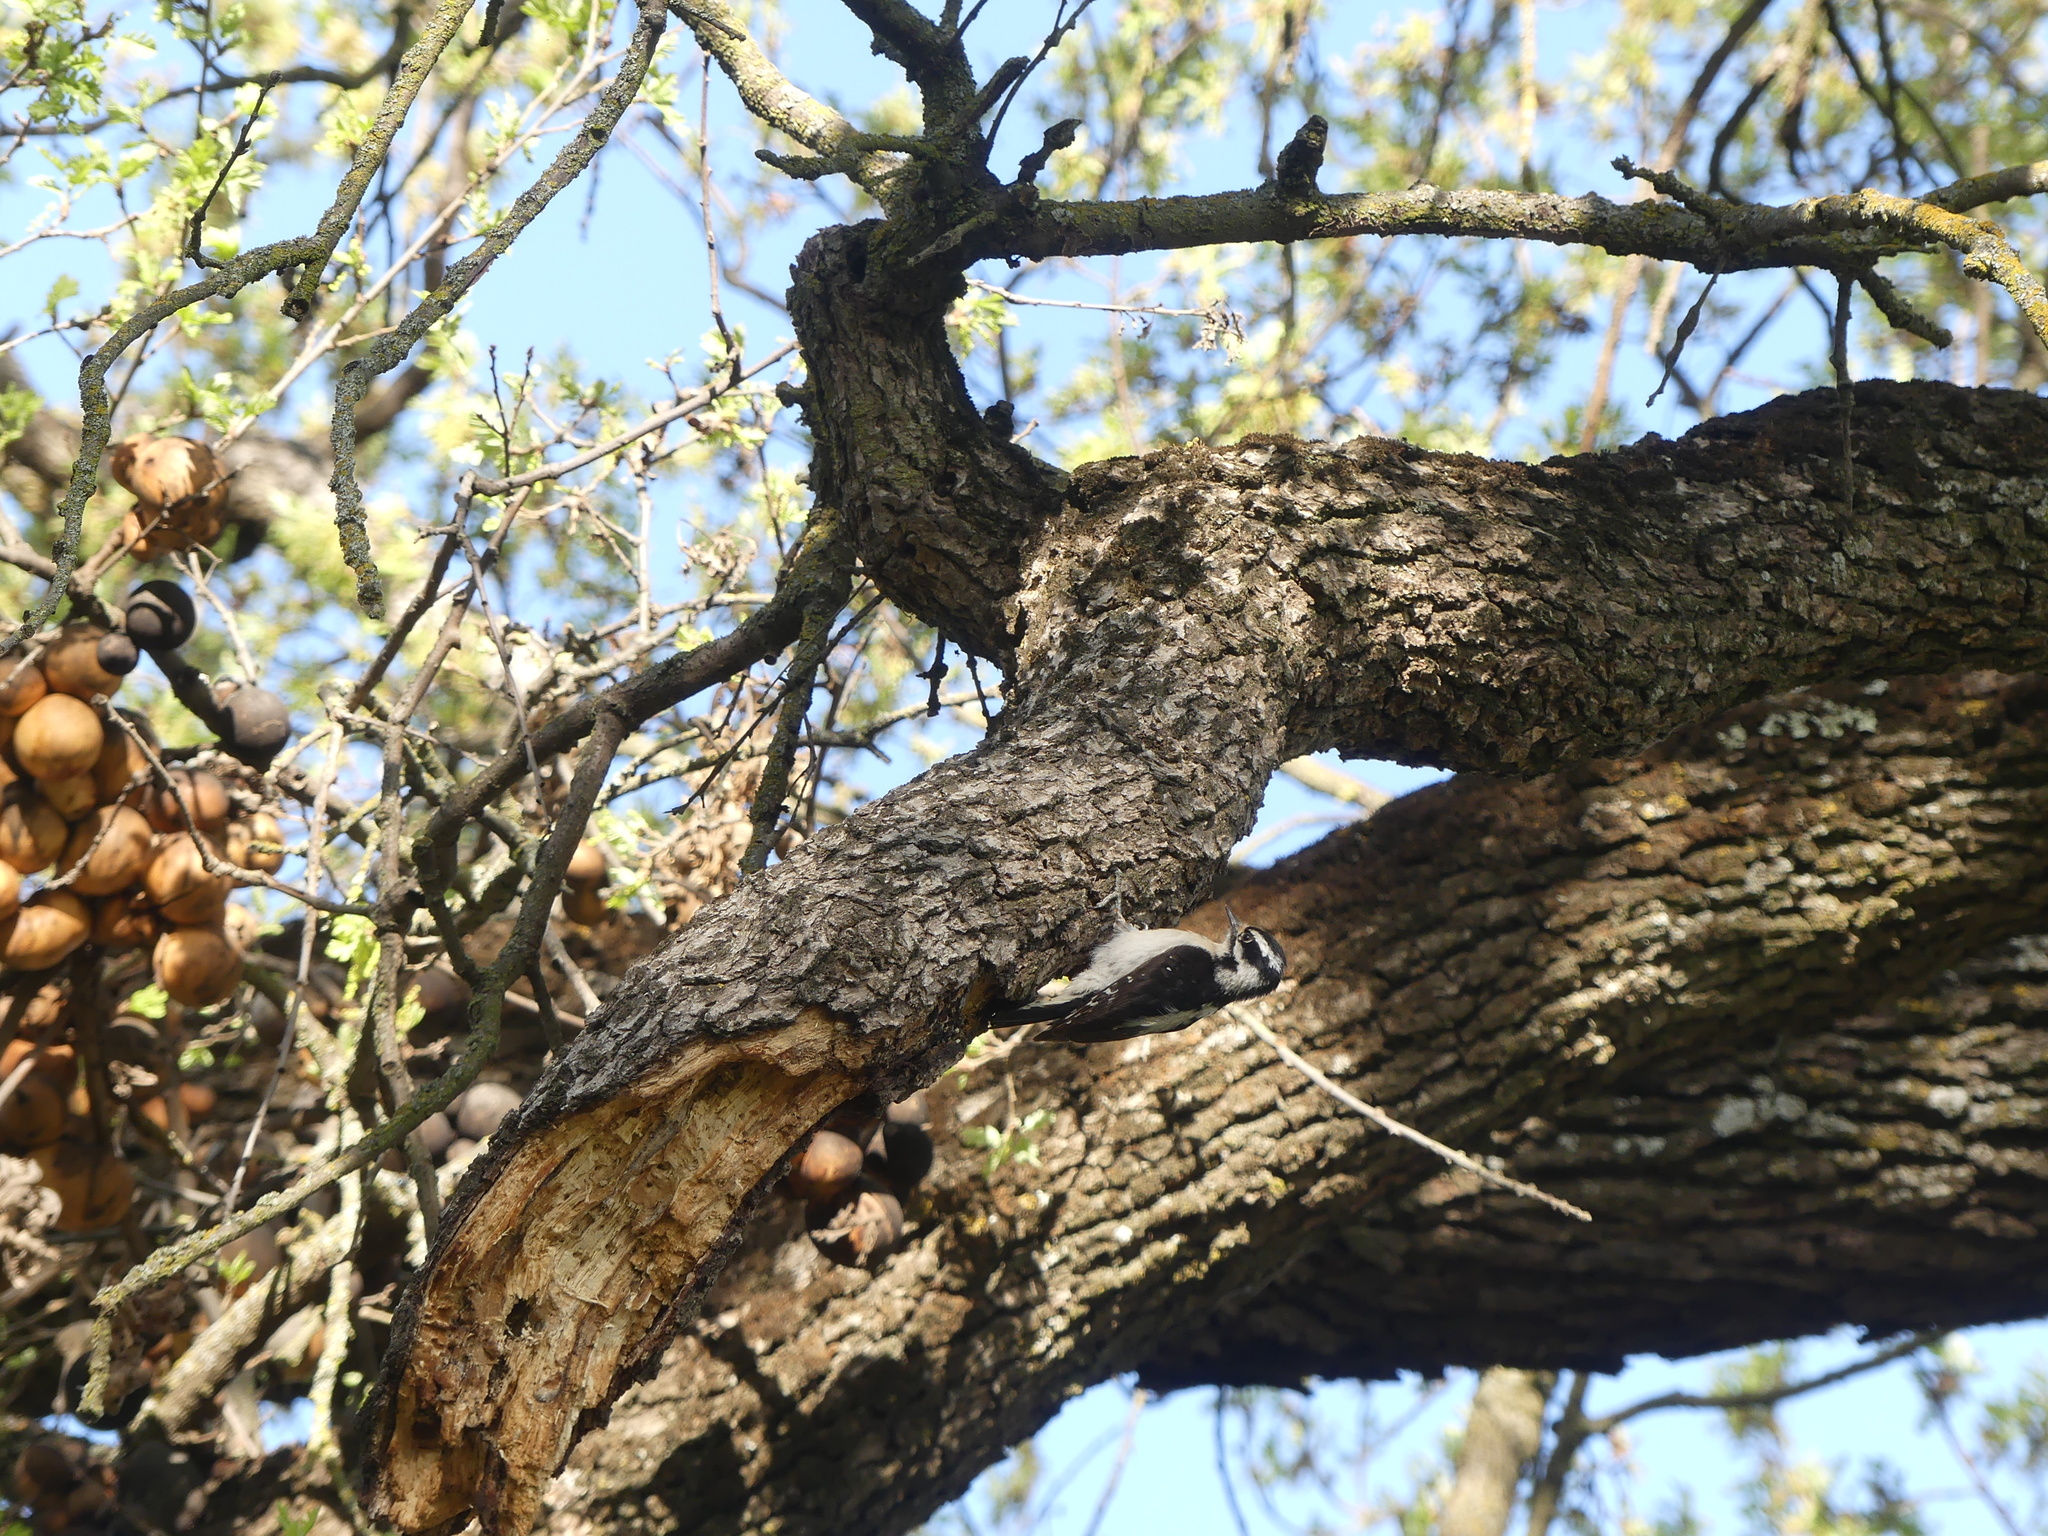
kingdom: Animalia
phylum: Chordata
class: Aves
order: Piciformes
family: Picidae
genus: Dryobates
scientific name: Dryobates pubescens
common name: Downy woodpecker
